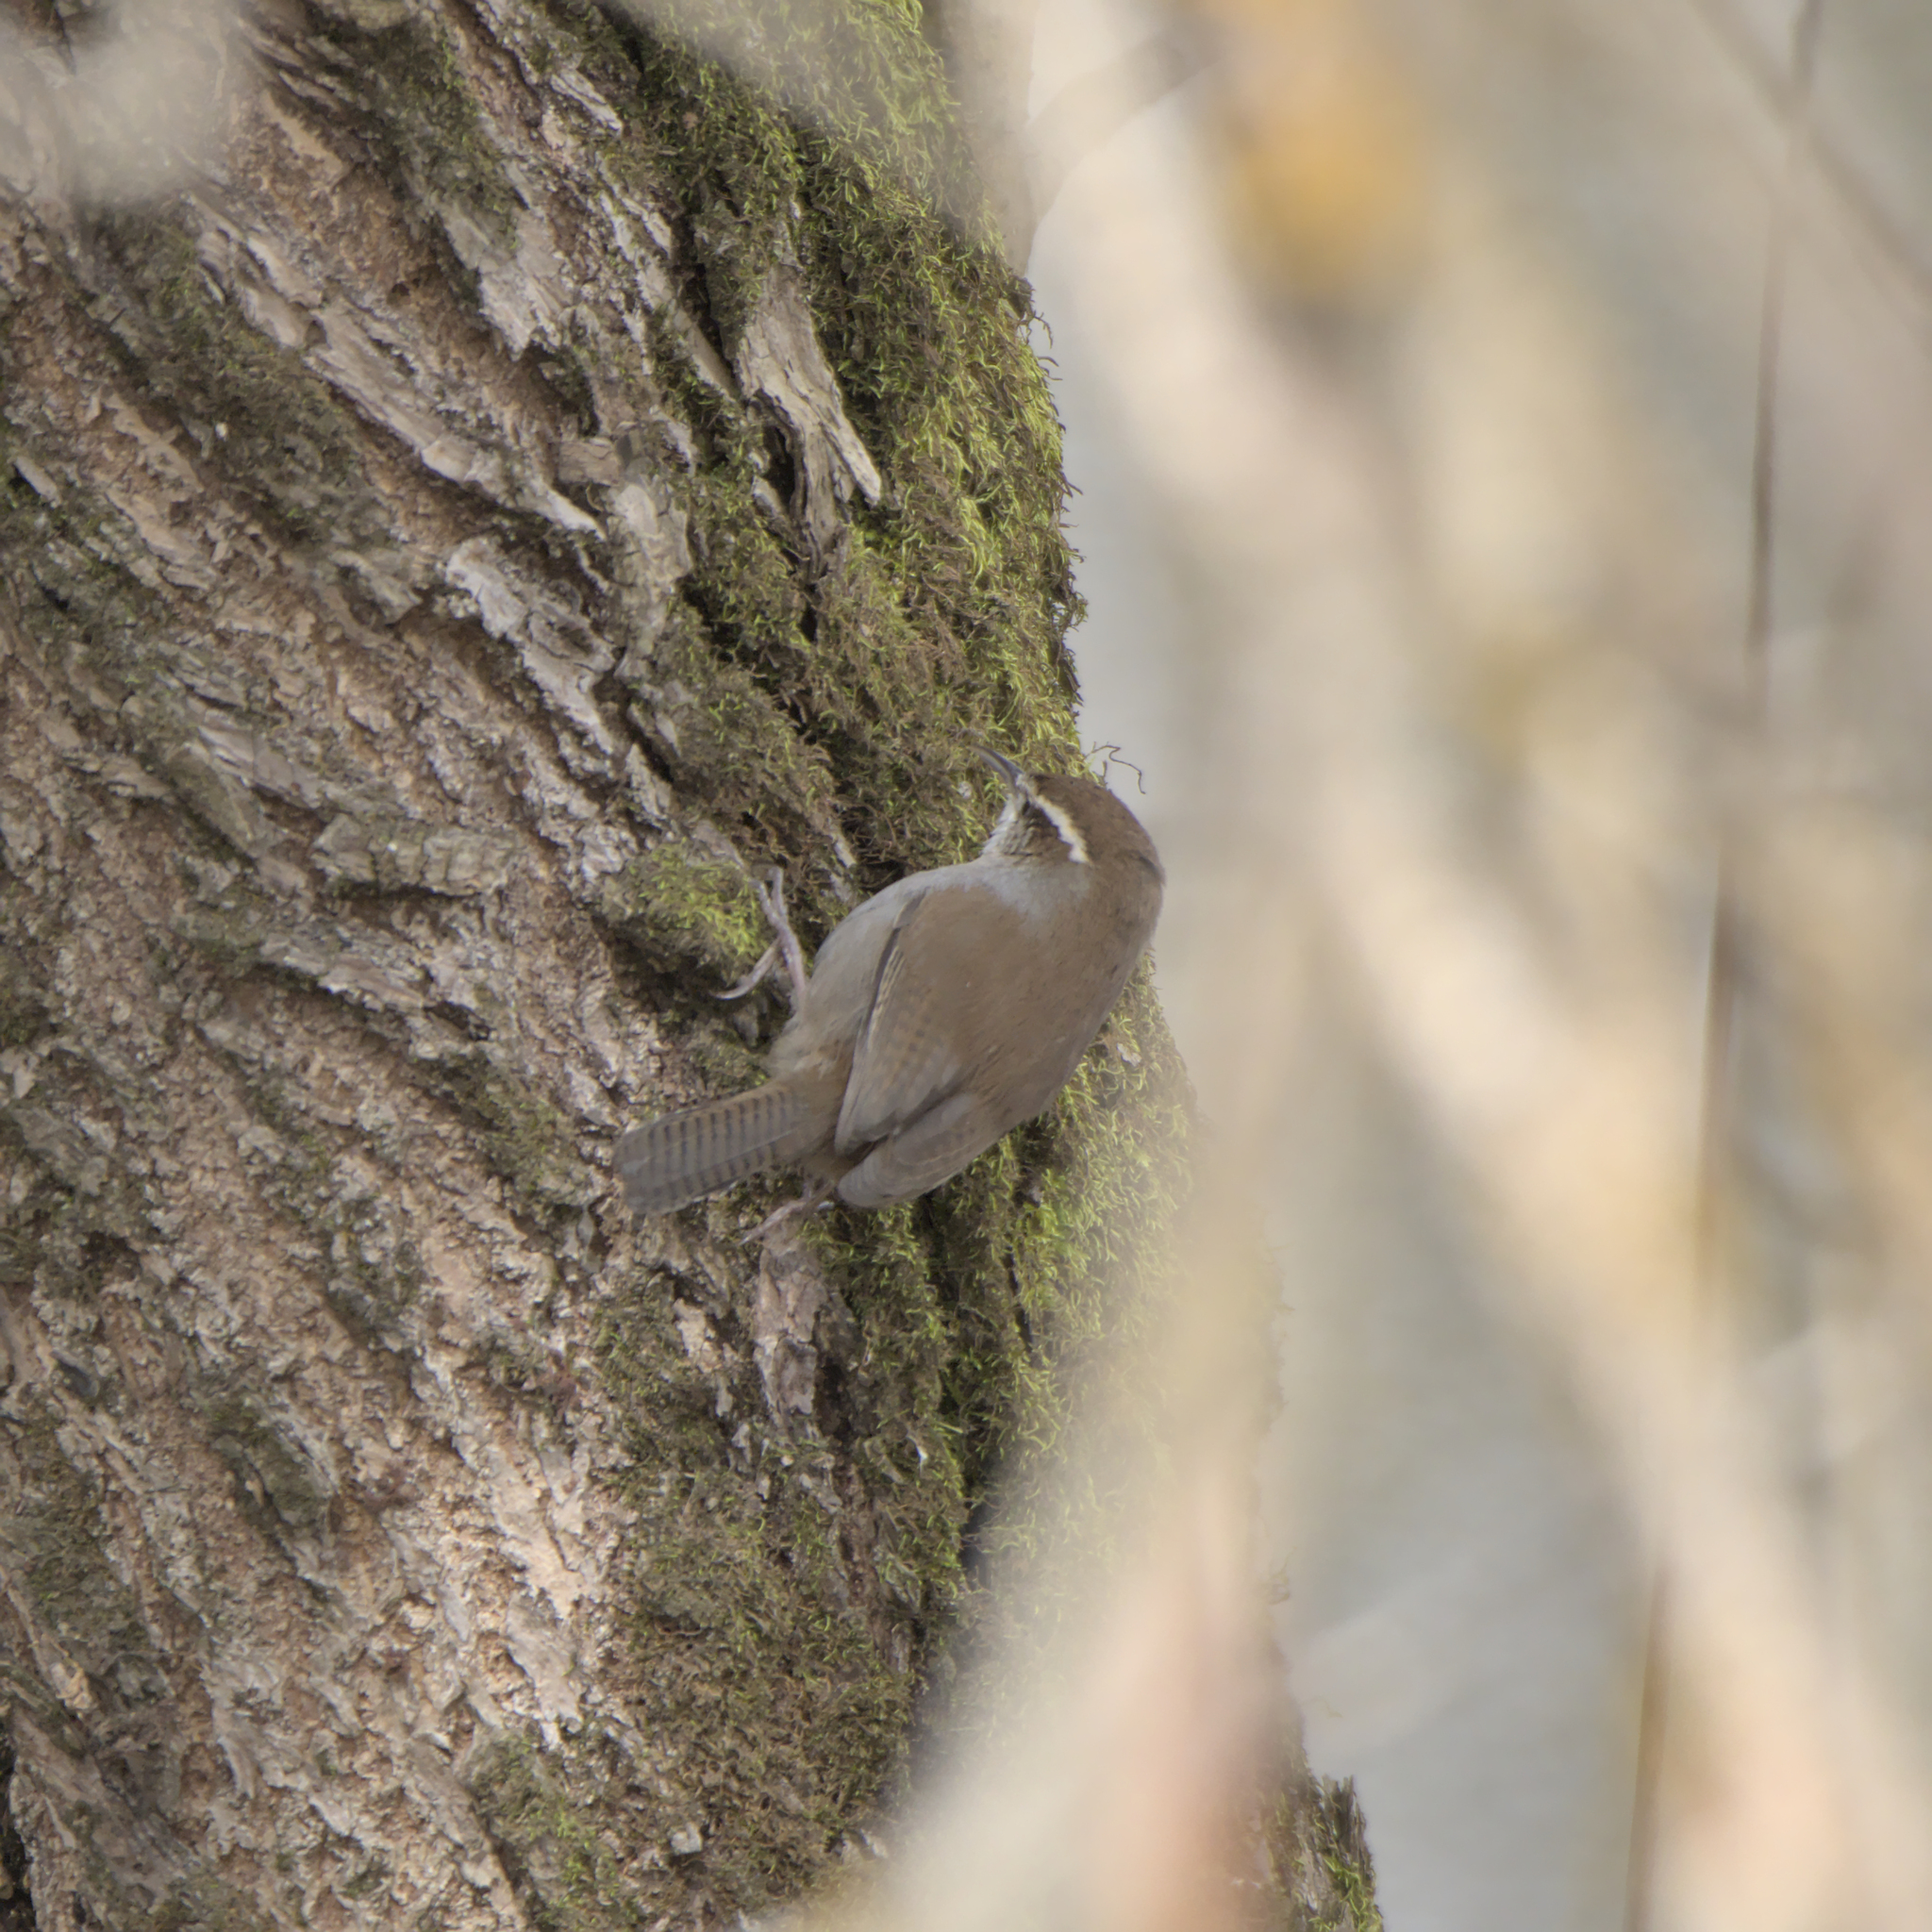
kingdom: Animalia
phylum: Chordata
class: Aves
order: Passeriformes
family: Troglodytidae
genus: Thryomanes
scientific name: Thryomanes bewickii
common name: Bewick's wren
